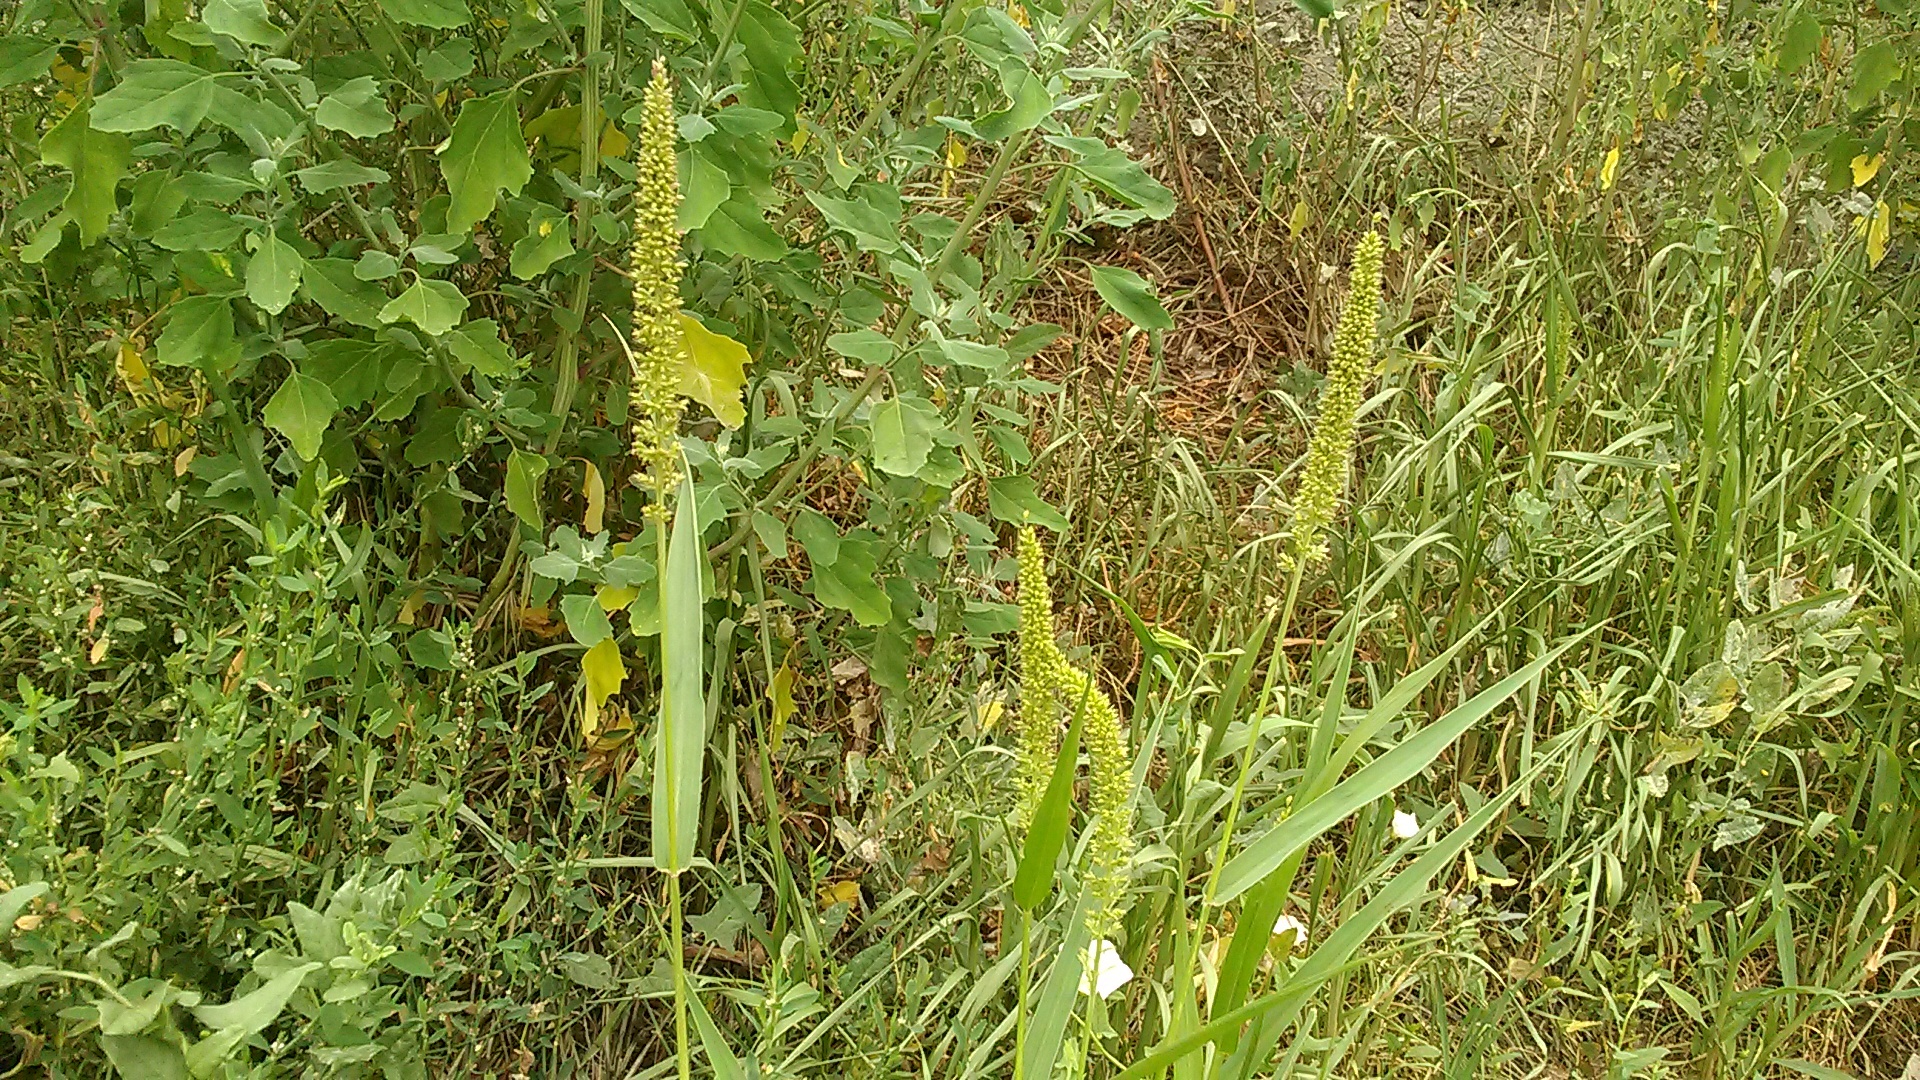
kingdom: Plantae
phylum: Tracheophyta
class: Liliopsida
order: Poales
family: Poaceae
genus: Setaria
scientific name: Setaria verticillata
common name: Hooked bristlegrass
